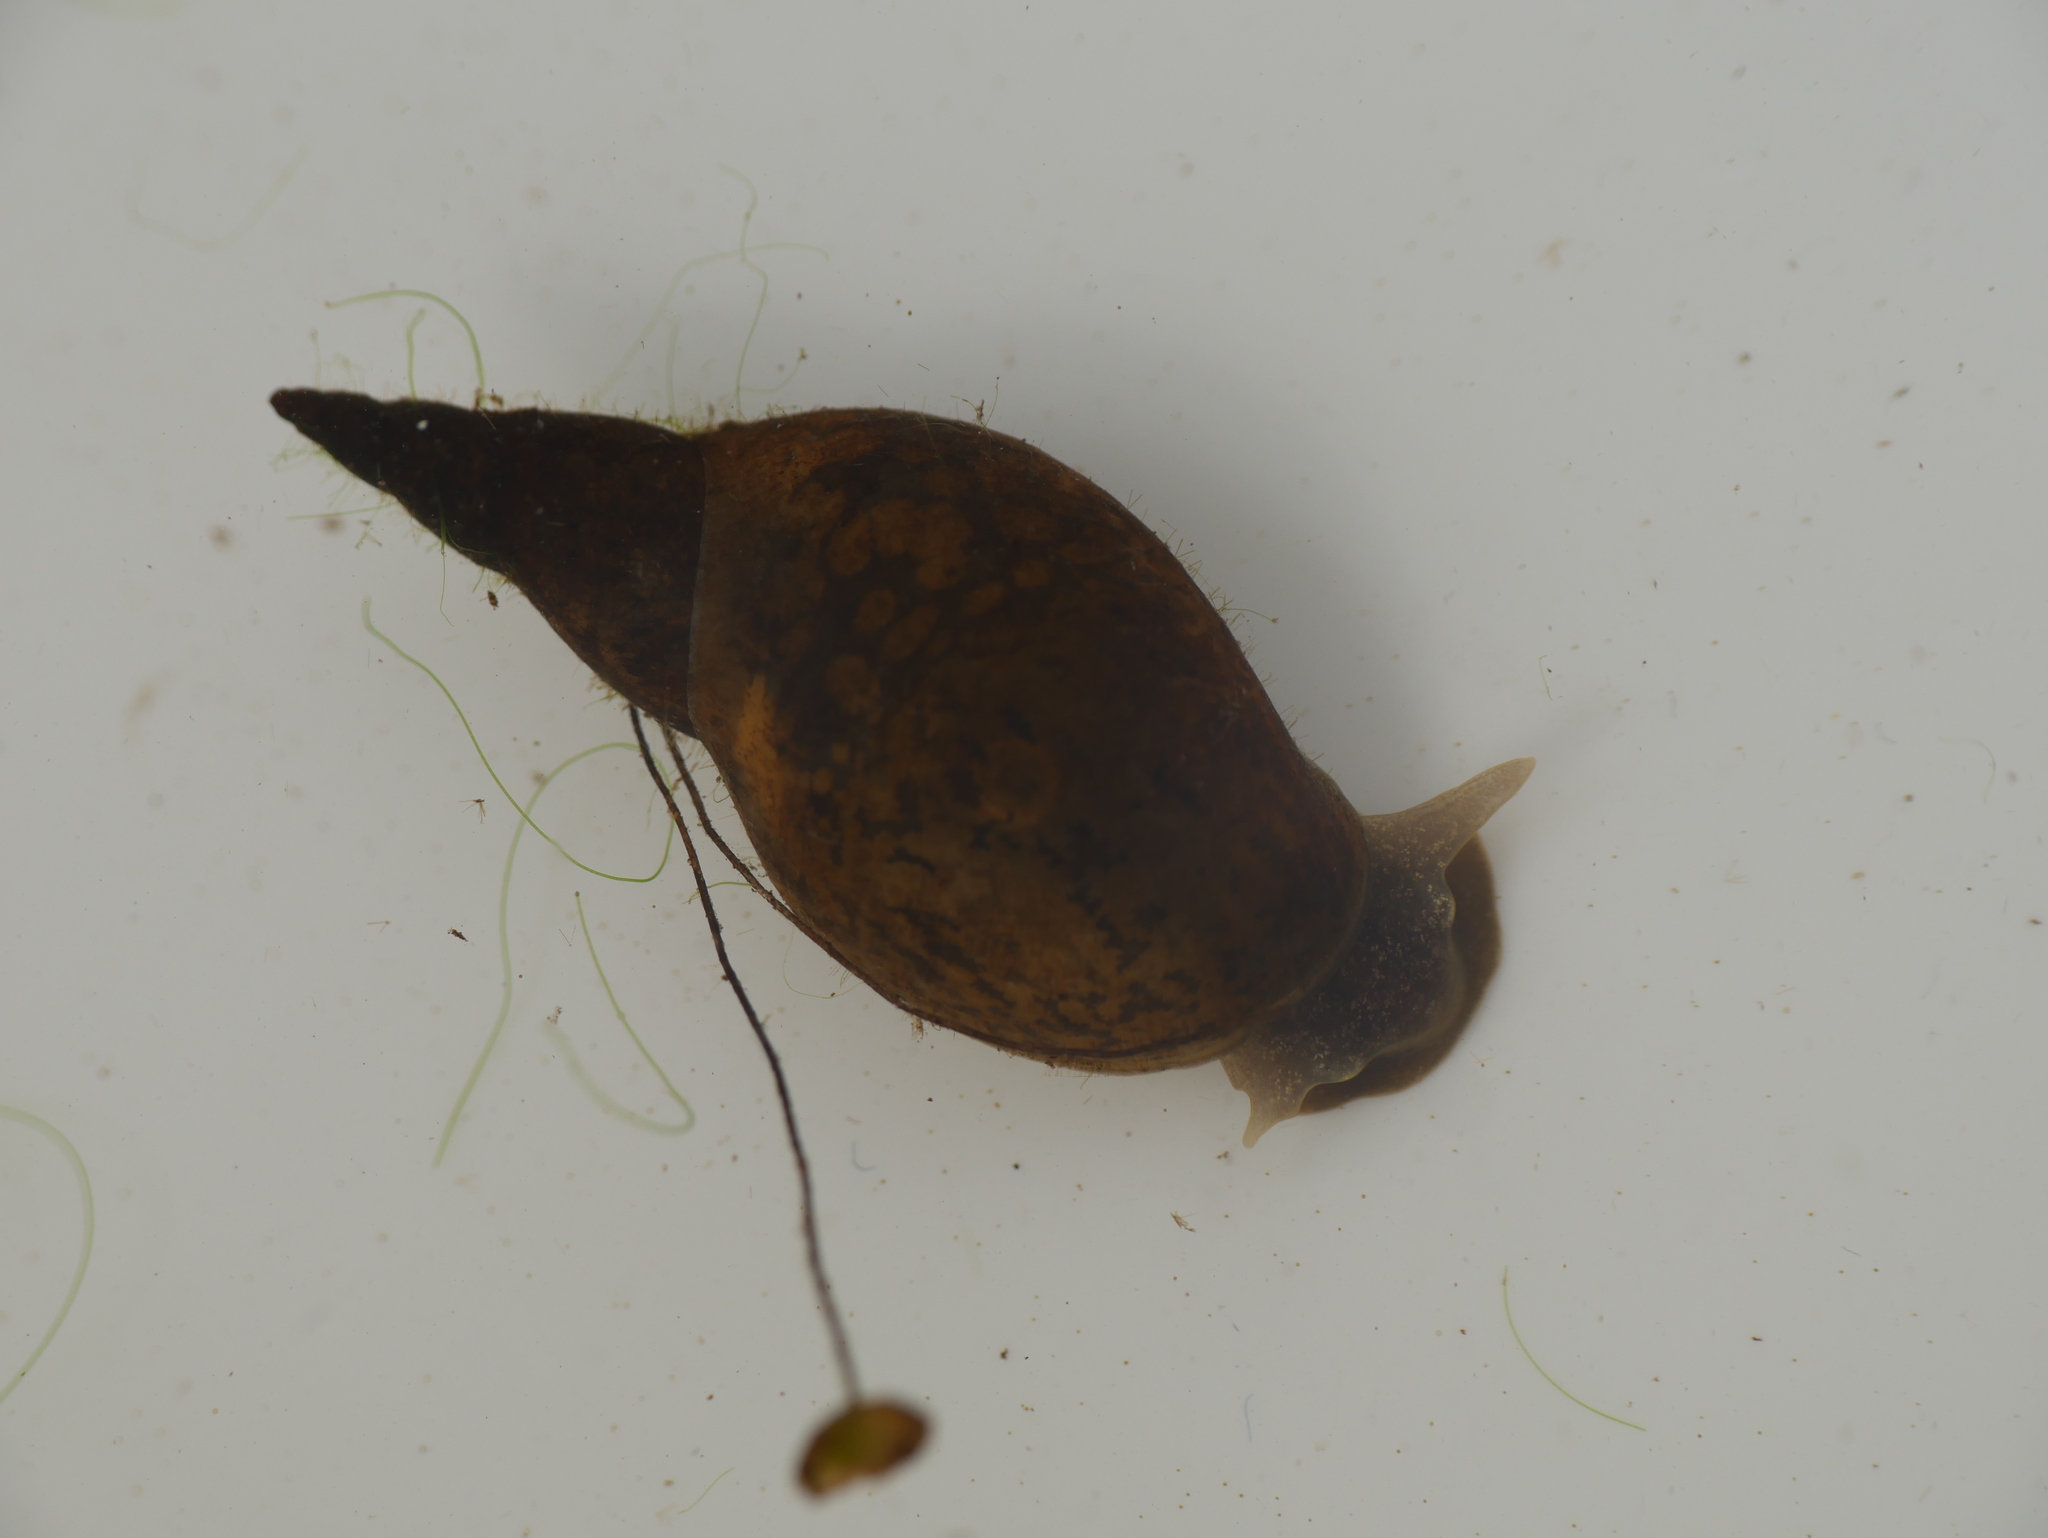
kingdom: Animalia
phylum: Mollusca
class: Gastropoda
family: Lymnaeidae
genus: Lymnaea
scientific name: Lymnaea stagnalis
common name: Great pond snail
